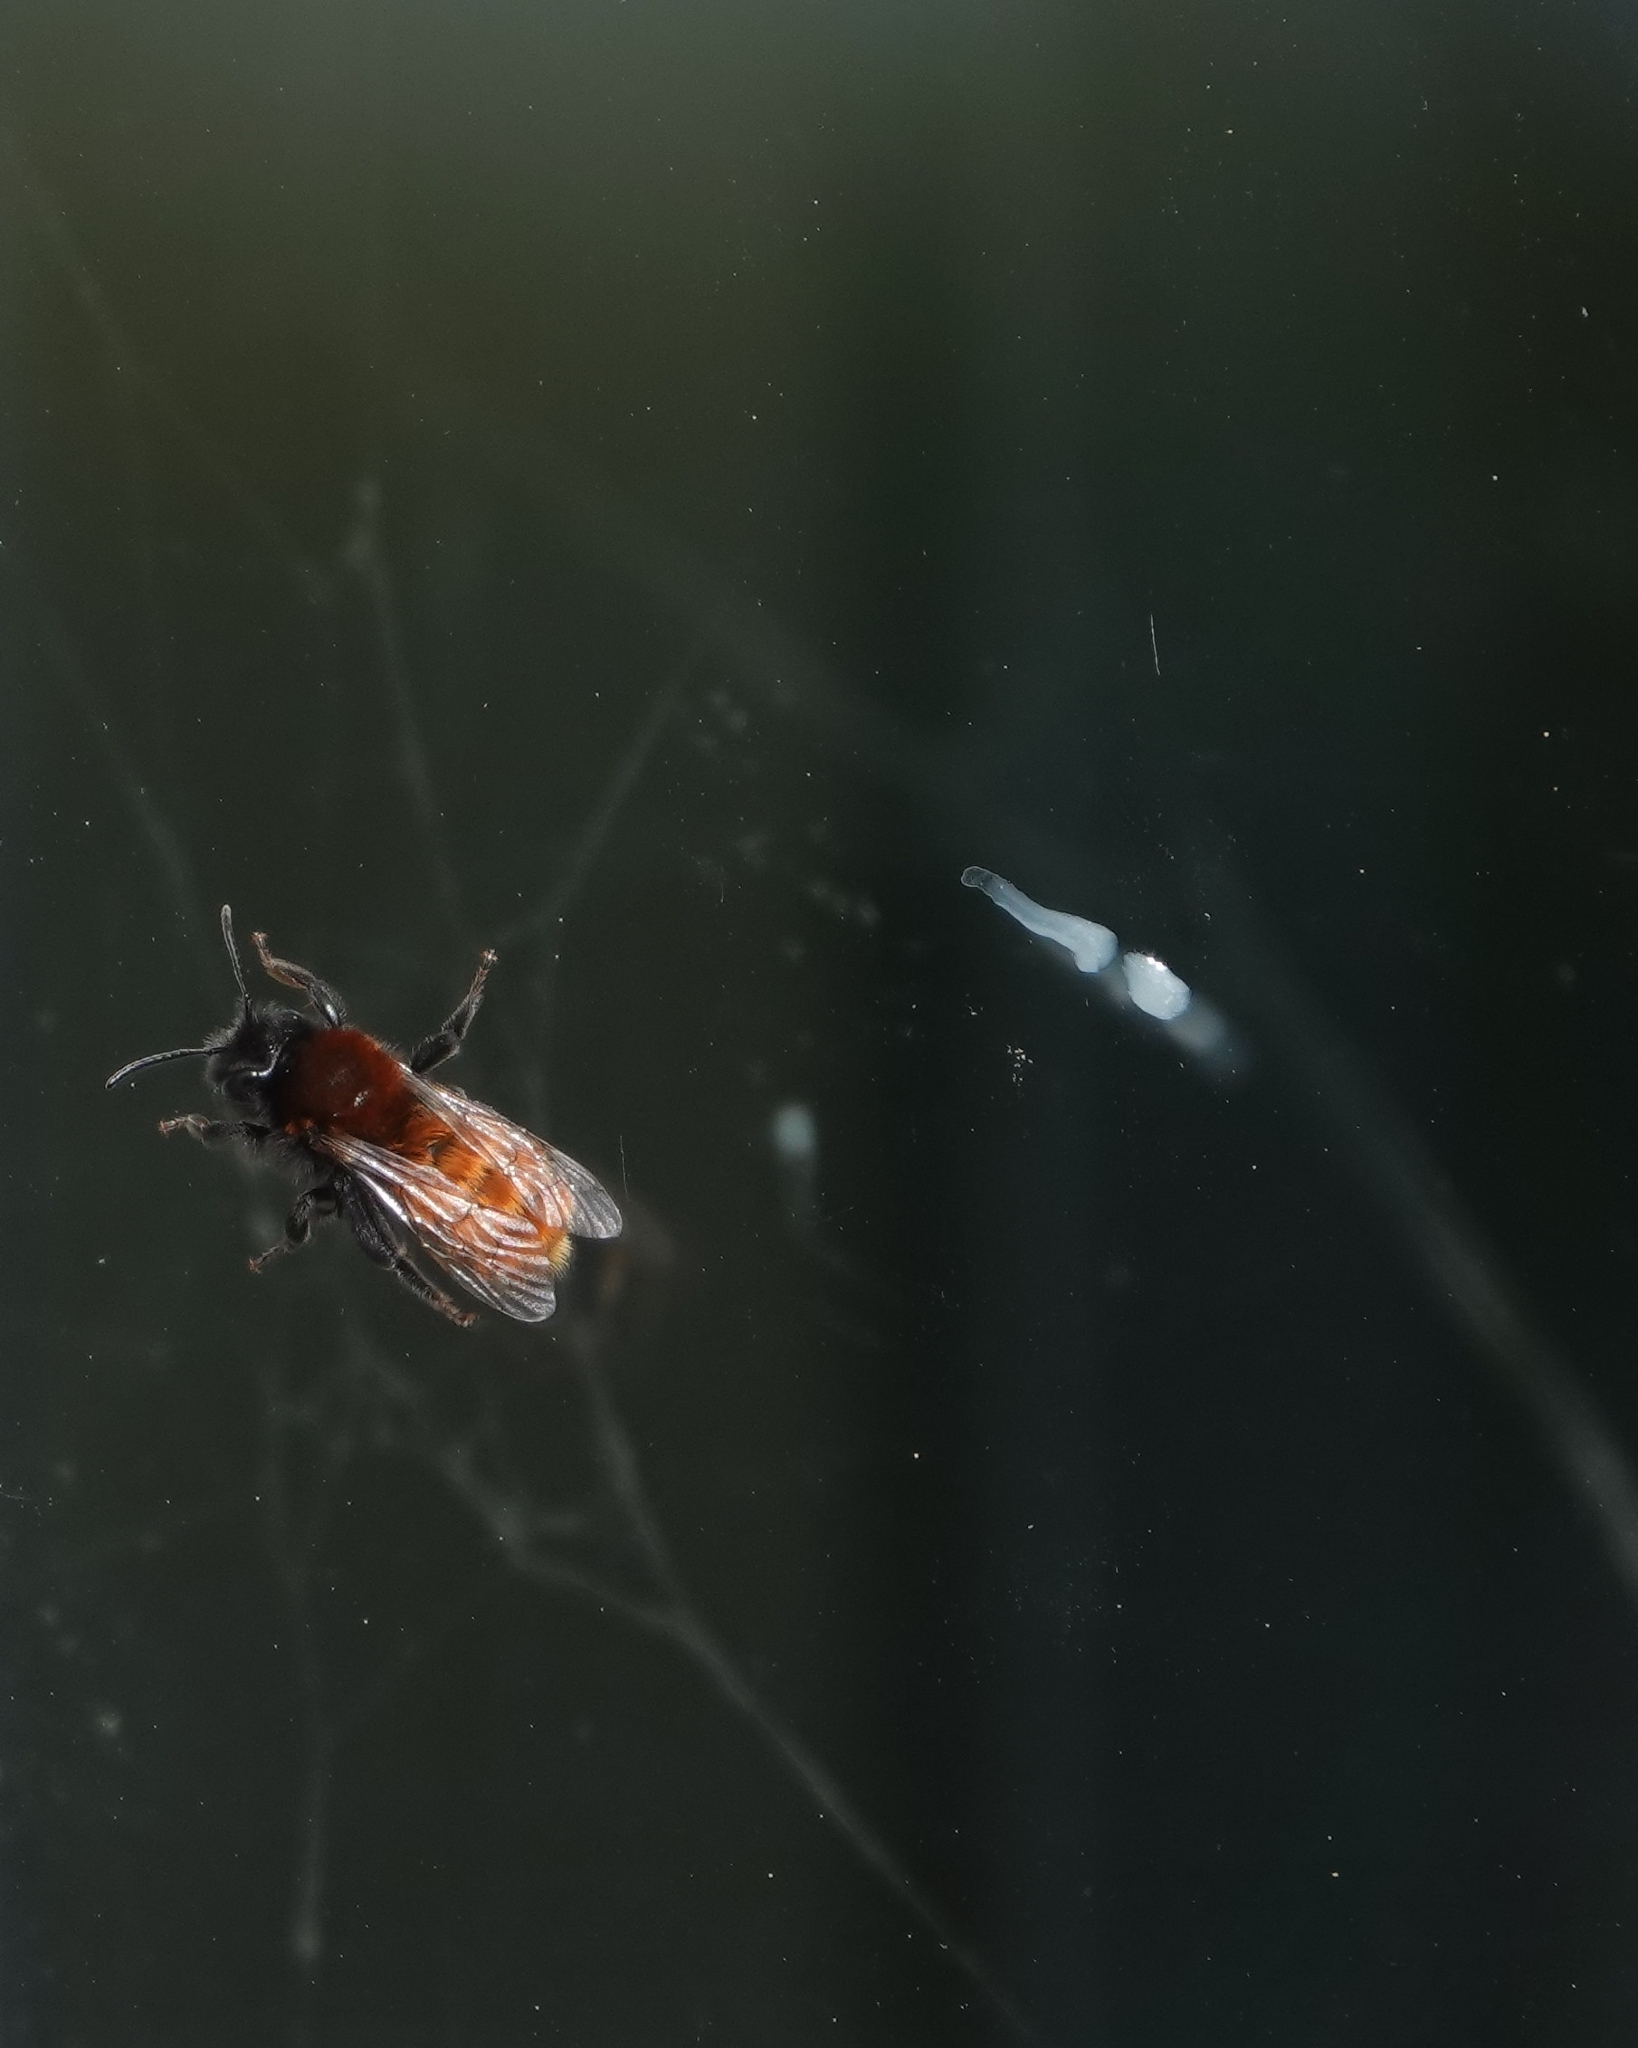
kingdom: Animalia
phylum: Arthropoda
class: Insecta
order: Hymenoptera
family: Andrenidae
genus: Andrena
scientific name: Andrena fulva
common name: Tawny mining bee
